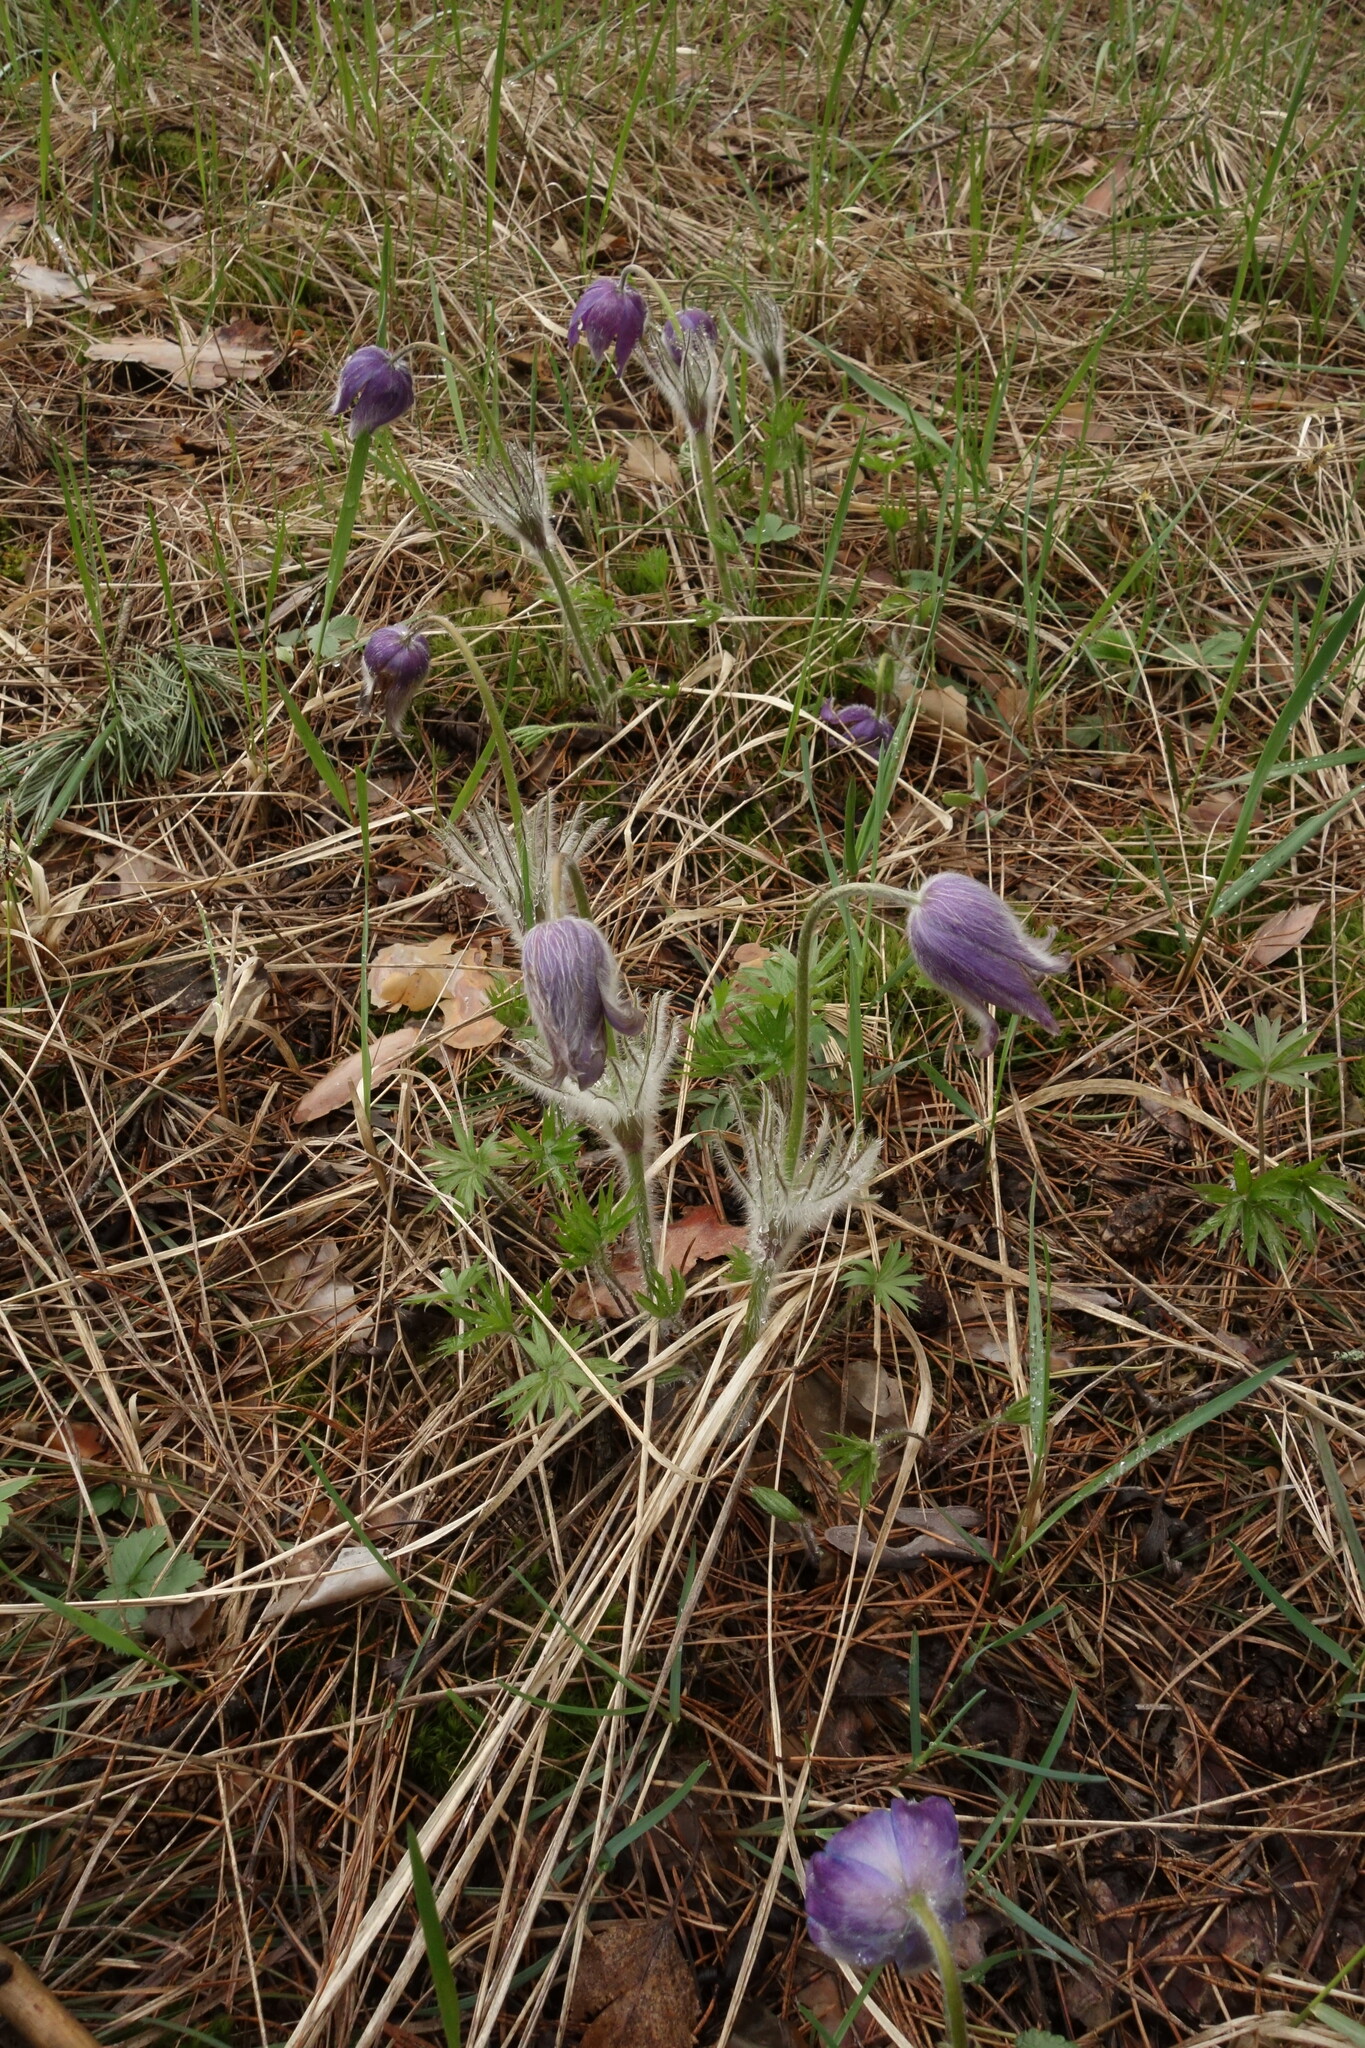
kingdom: Plantae
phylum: Tracheophyta
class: Magnoliopsida
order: Ranunculales
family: Ranunculaceae
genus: Pulsatilla
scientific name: Pulsatilla patens
